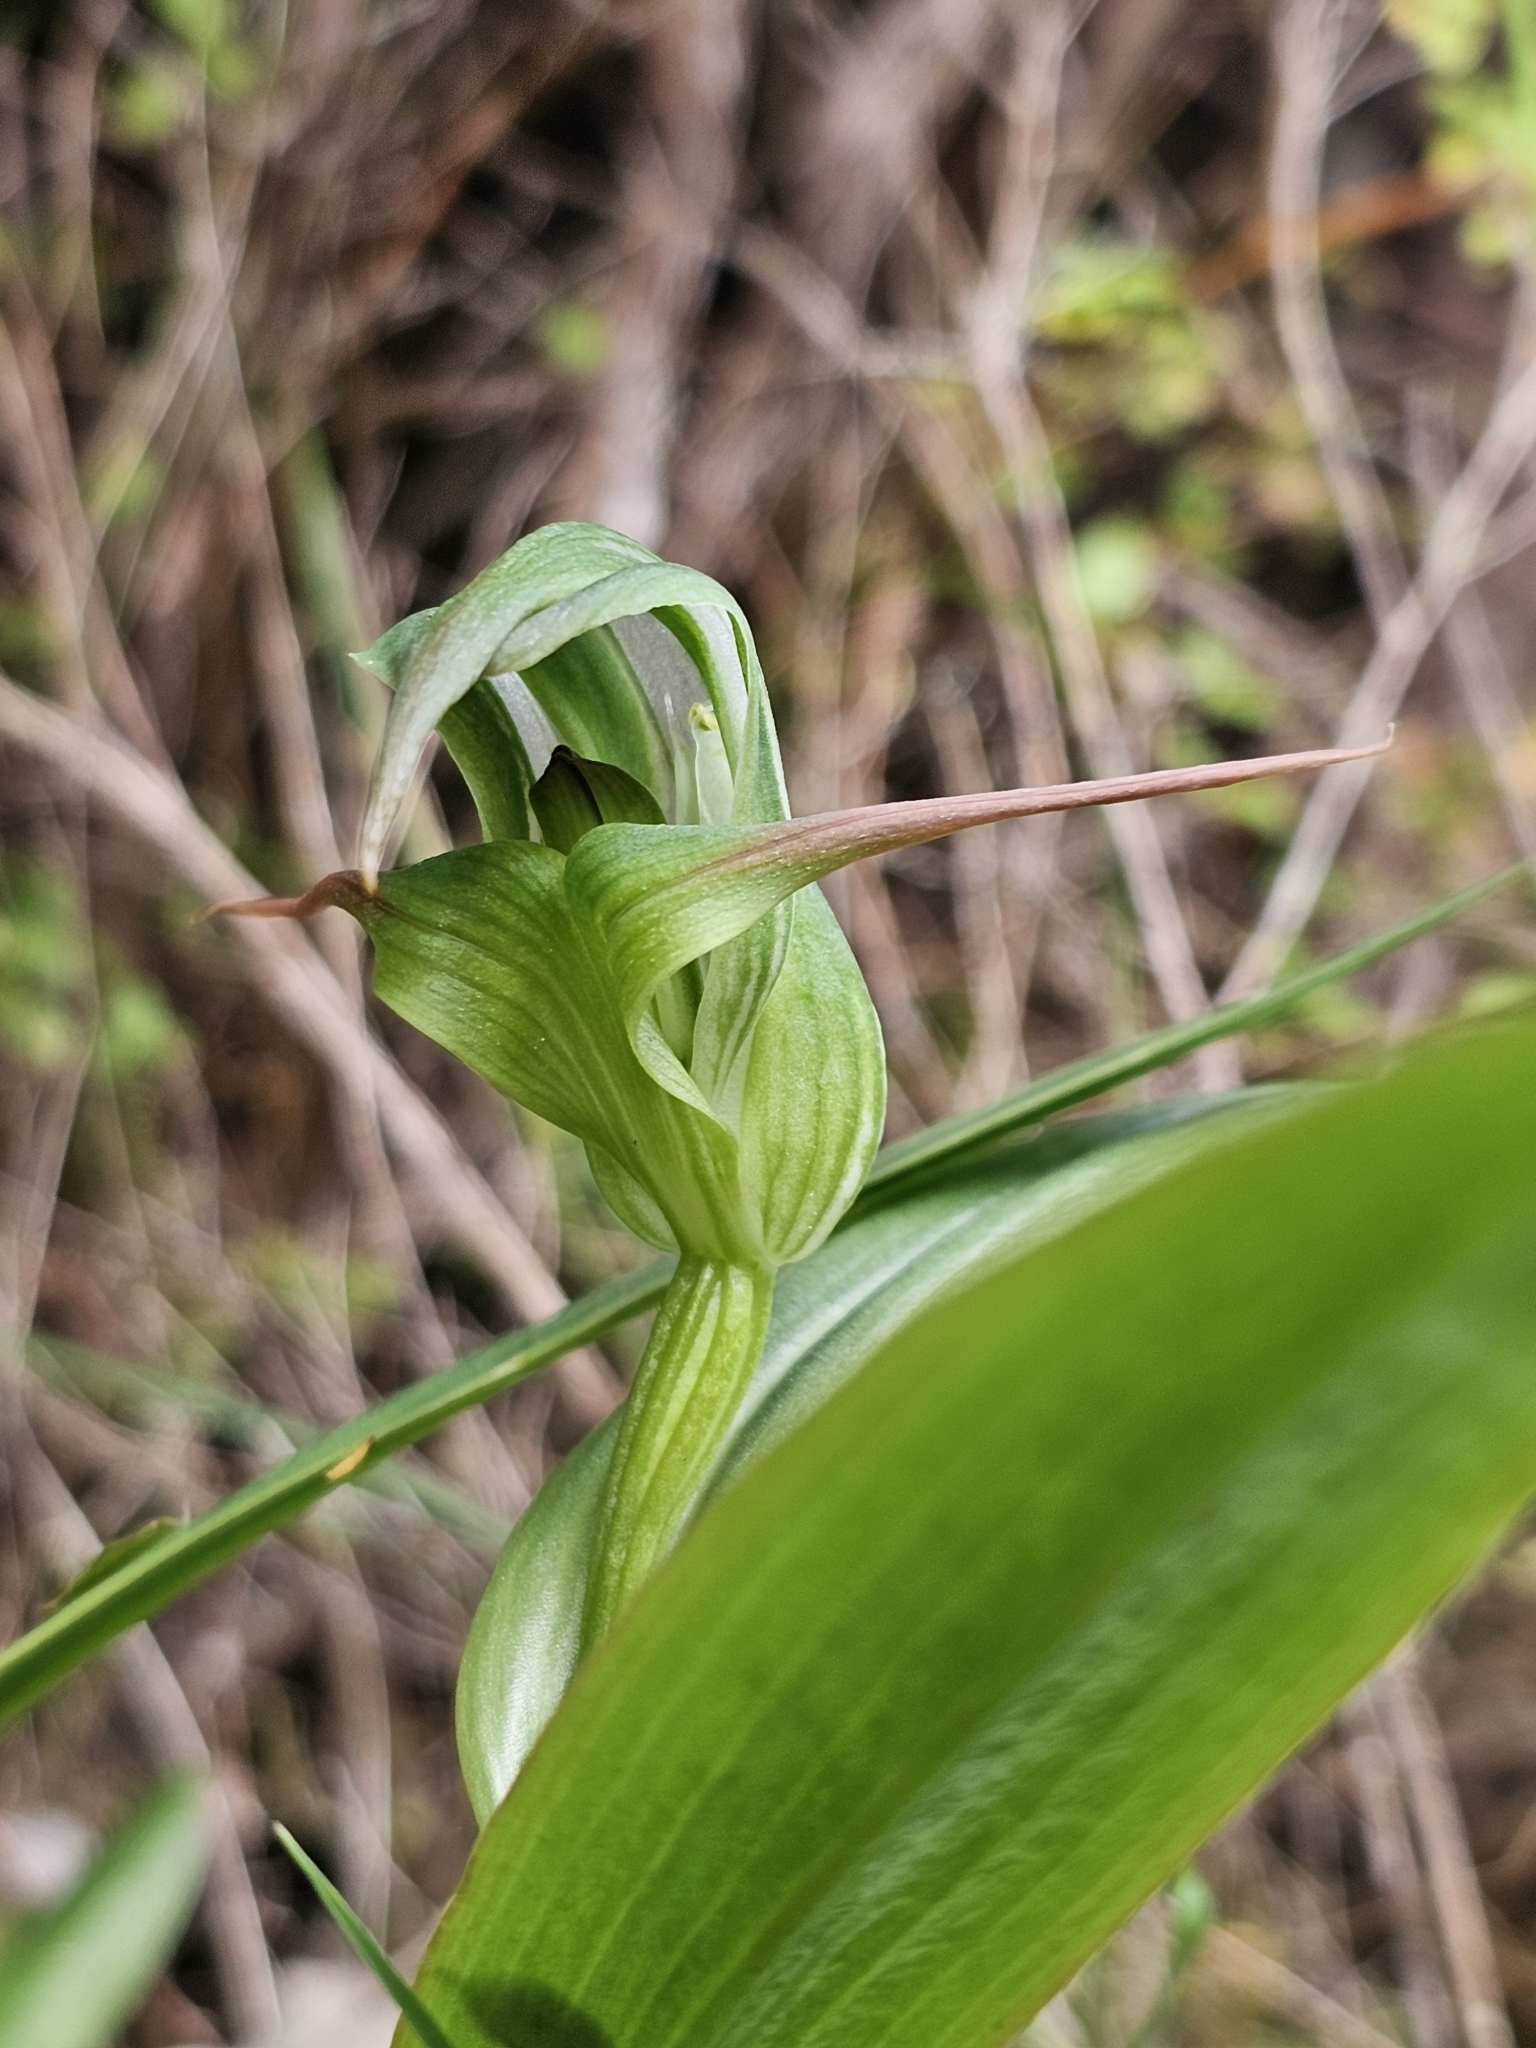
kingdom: Plantae
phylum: Tracheophyta
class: Liliopsida
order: Asparagales
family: Orchidaceae
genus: Pterostylis
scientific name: Pterostylis patens
